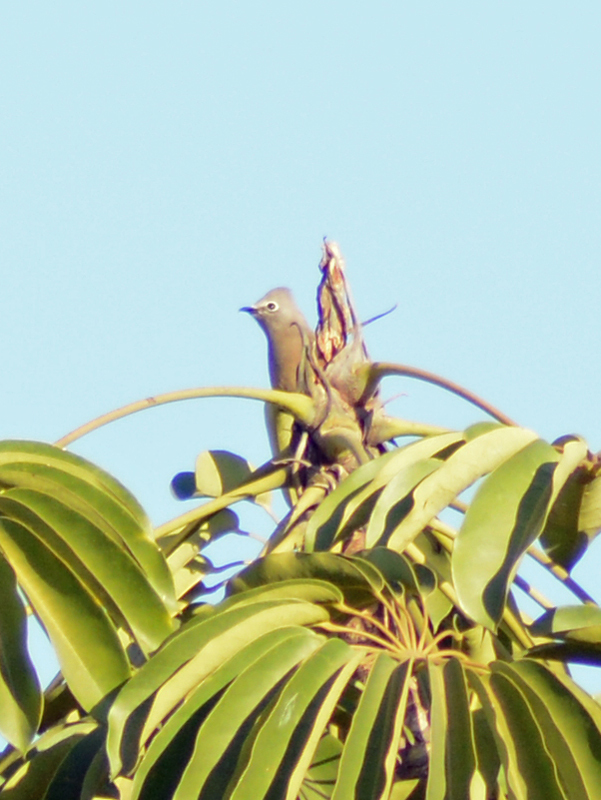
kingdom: Animalia
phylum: Chordata
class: Aves
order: Passeriformes
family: Ptilogonatidae
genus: Ptilogonys
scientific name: Ptilogonys cinereus
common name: Gray silky-flycatcher
